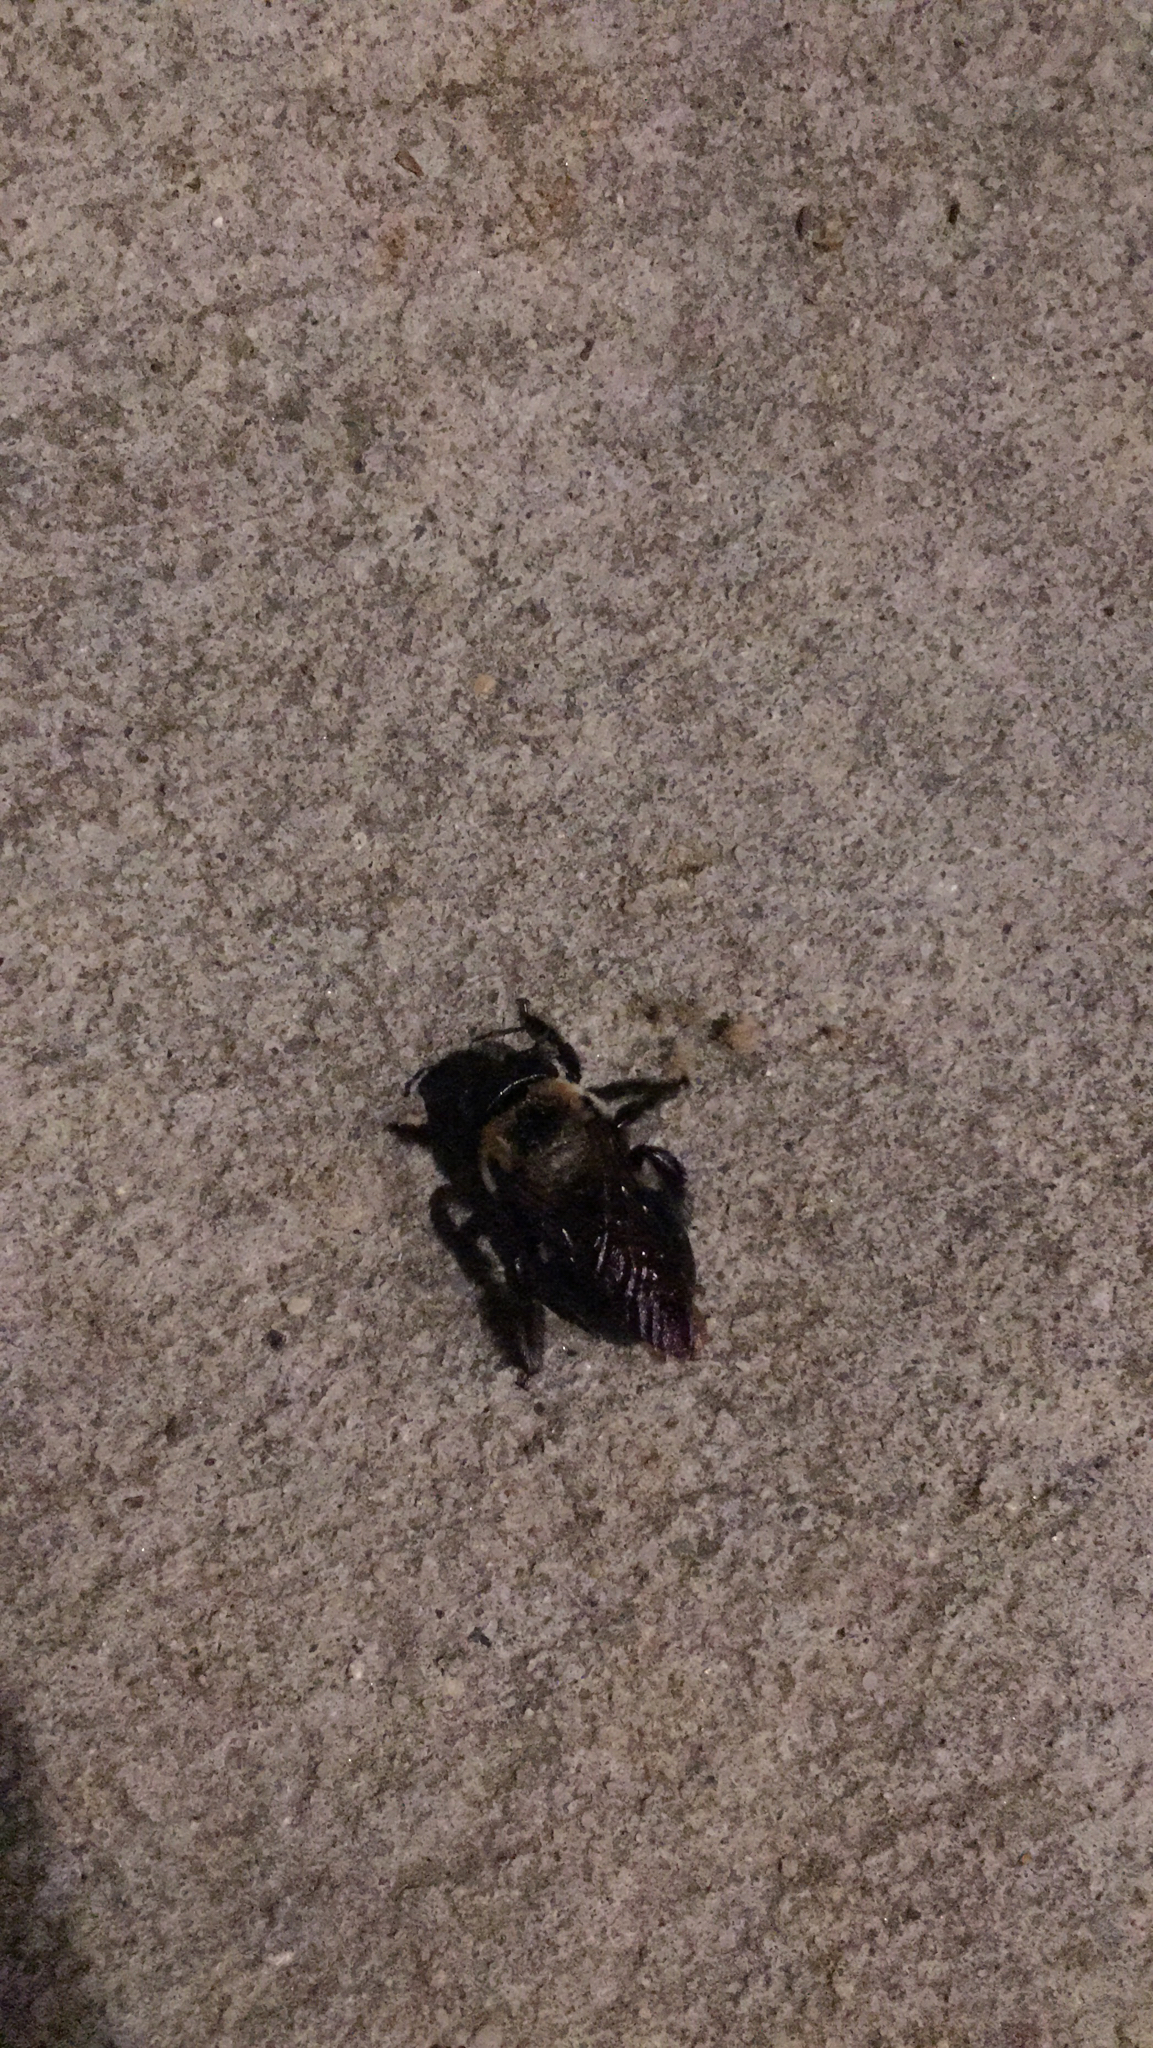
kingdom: Animalia
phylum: Arthropoda
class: Insecta
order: Hymenoptera
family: Apidae
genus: Xylocopa
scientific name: Xylocopa virginica
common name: Carpenter bee
